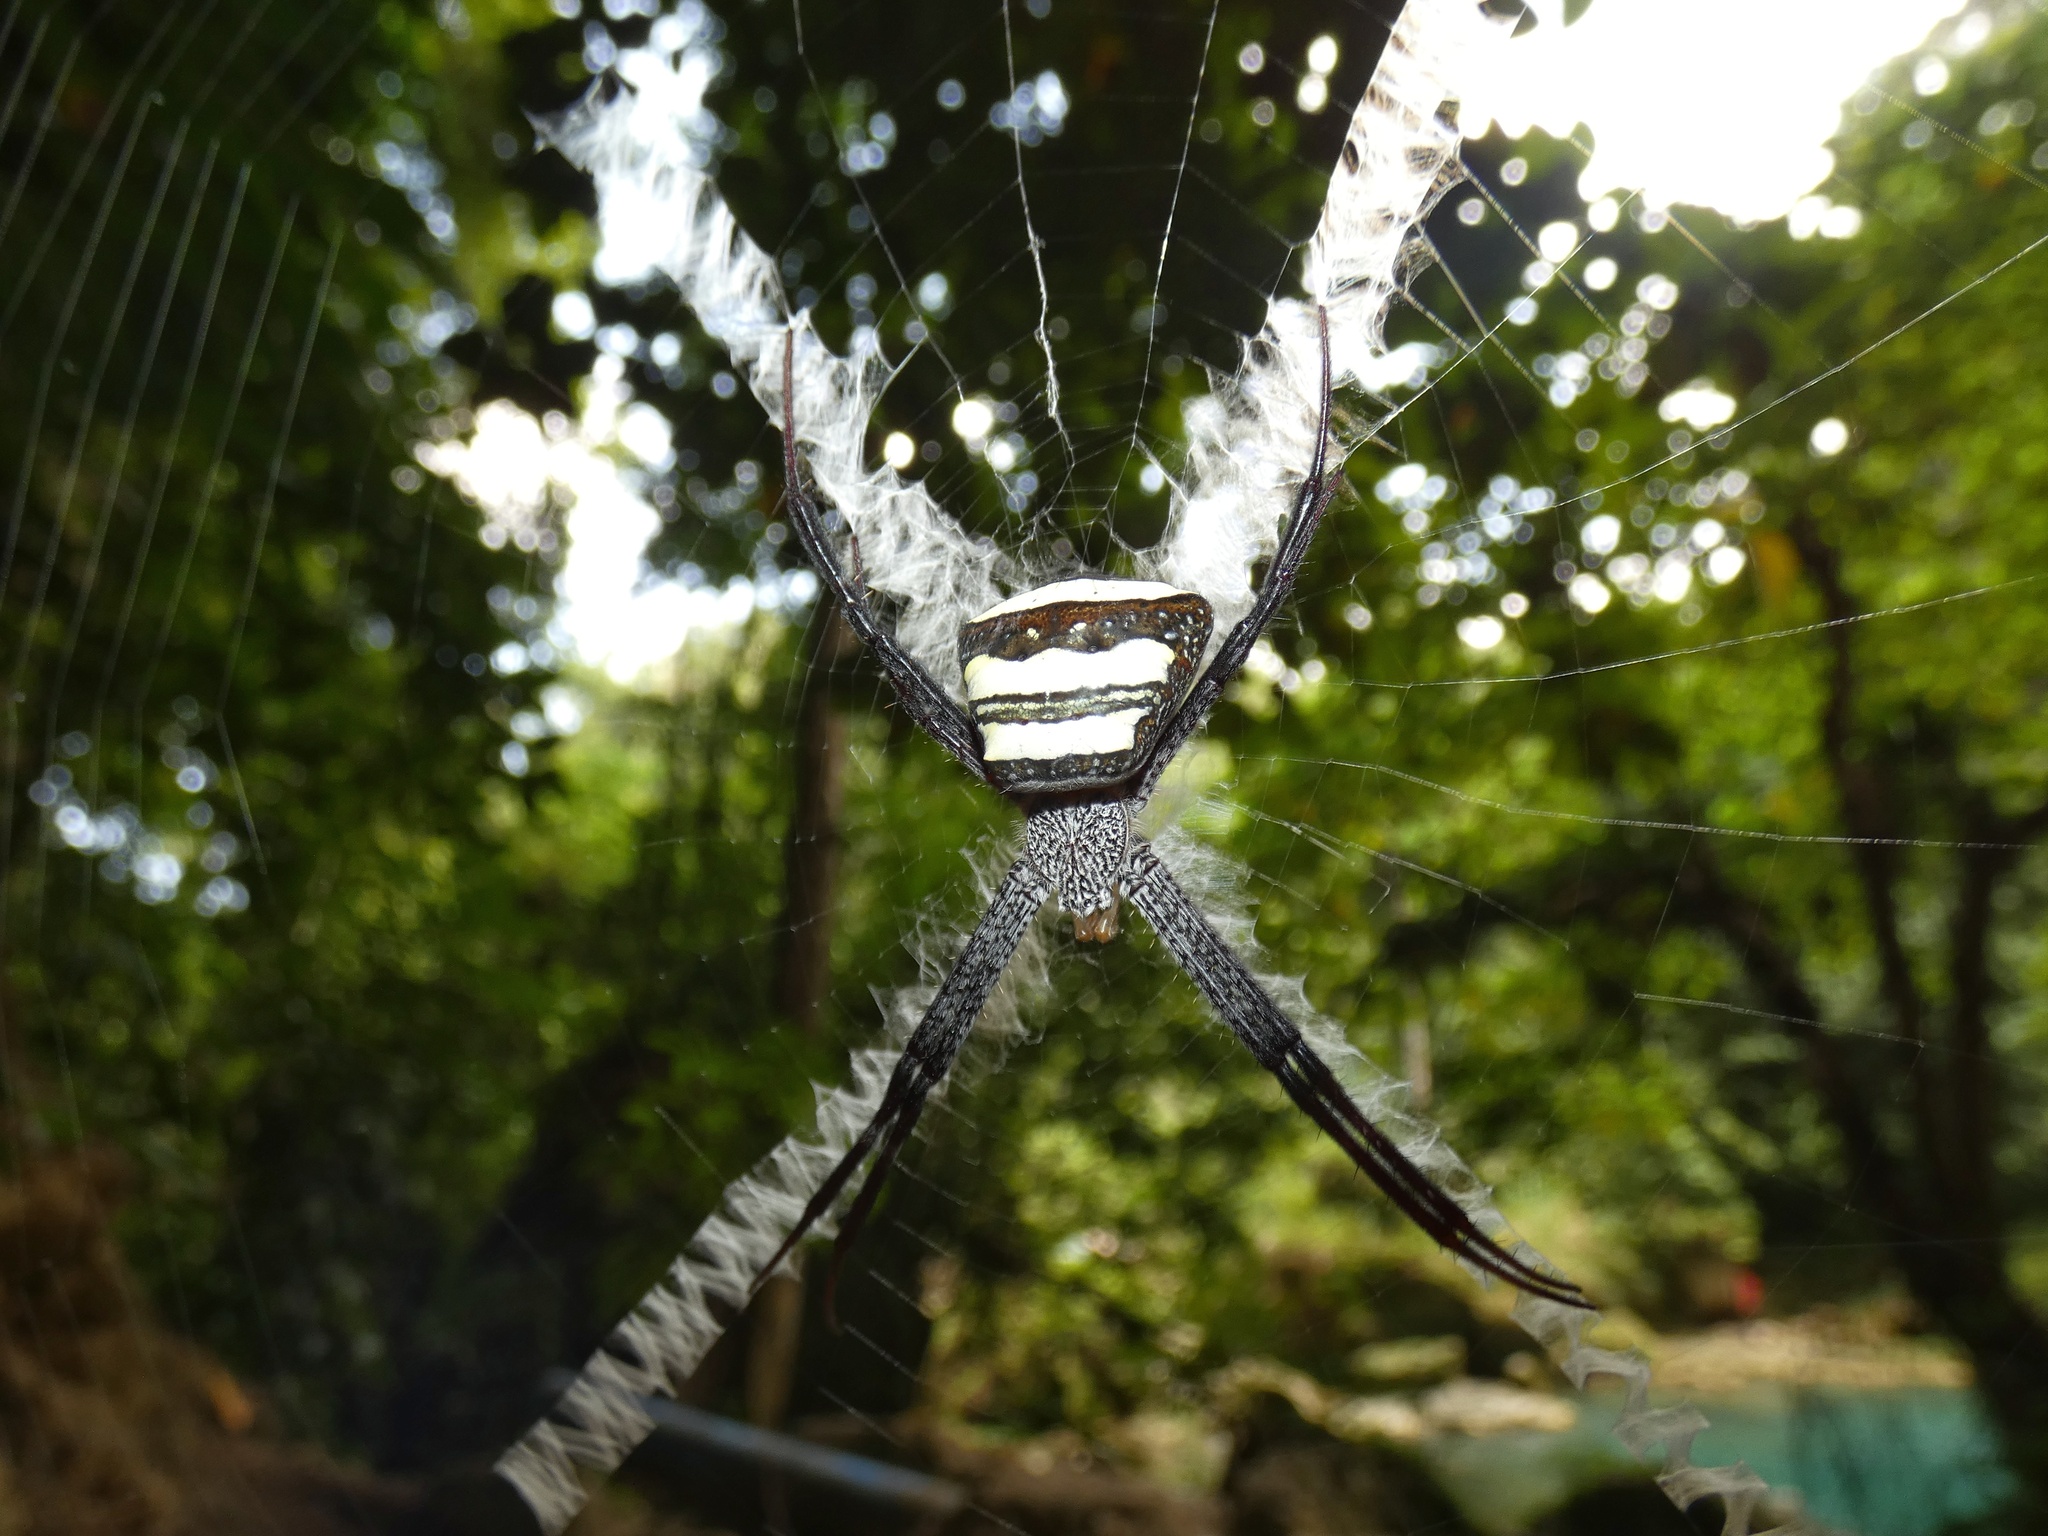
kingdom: Animalia
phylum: Arthropoda
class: Arachnida
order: Araneae
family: Araneidae
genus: Argiope
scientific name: Argiope luzona
